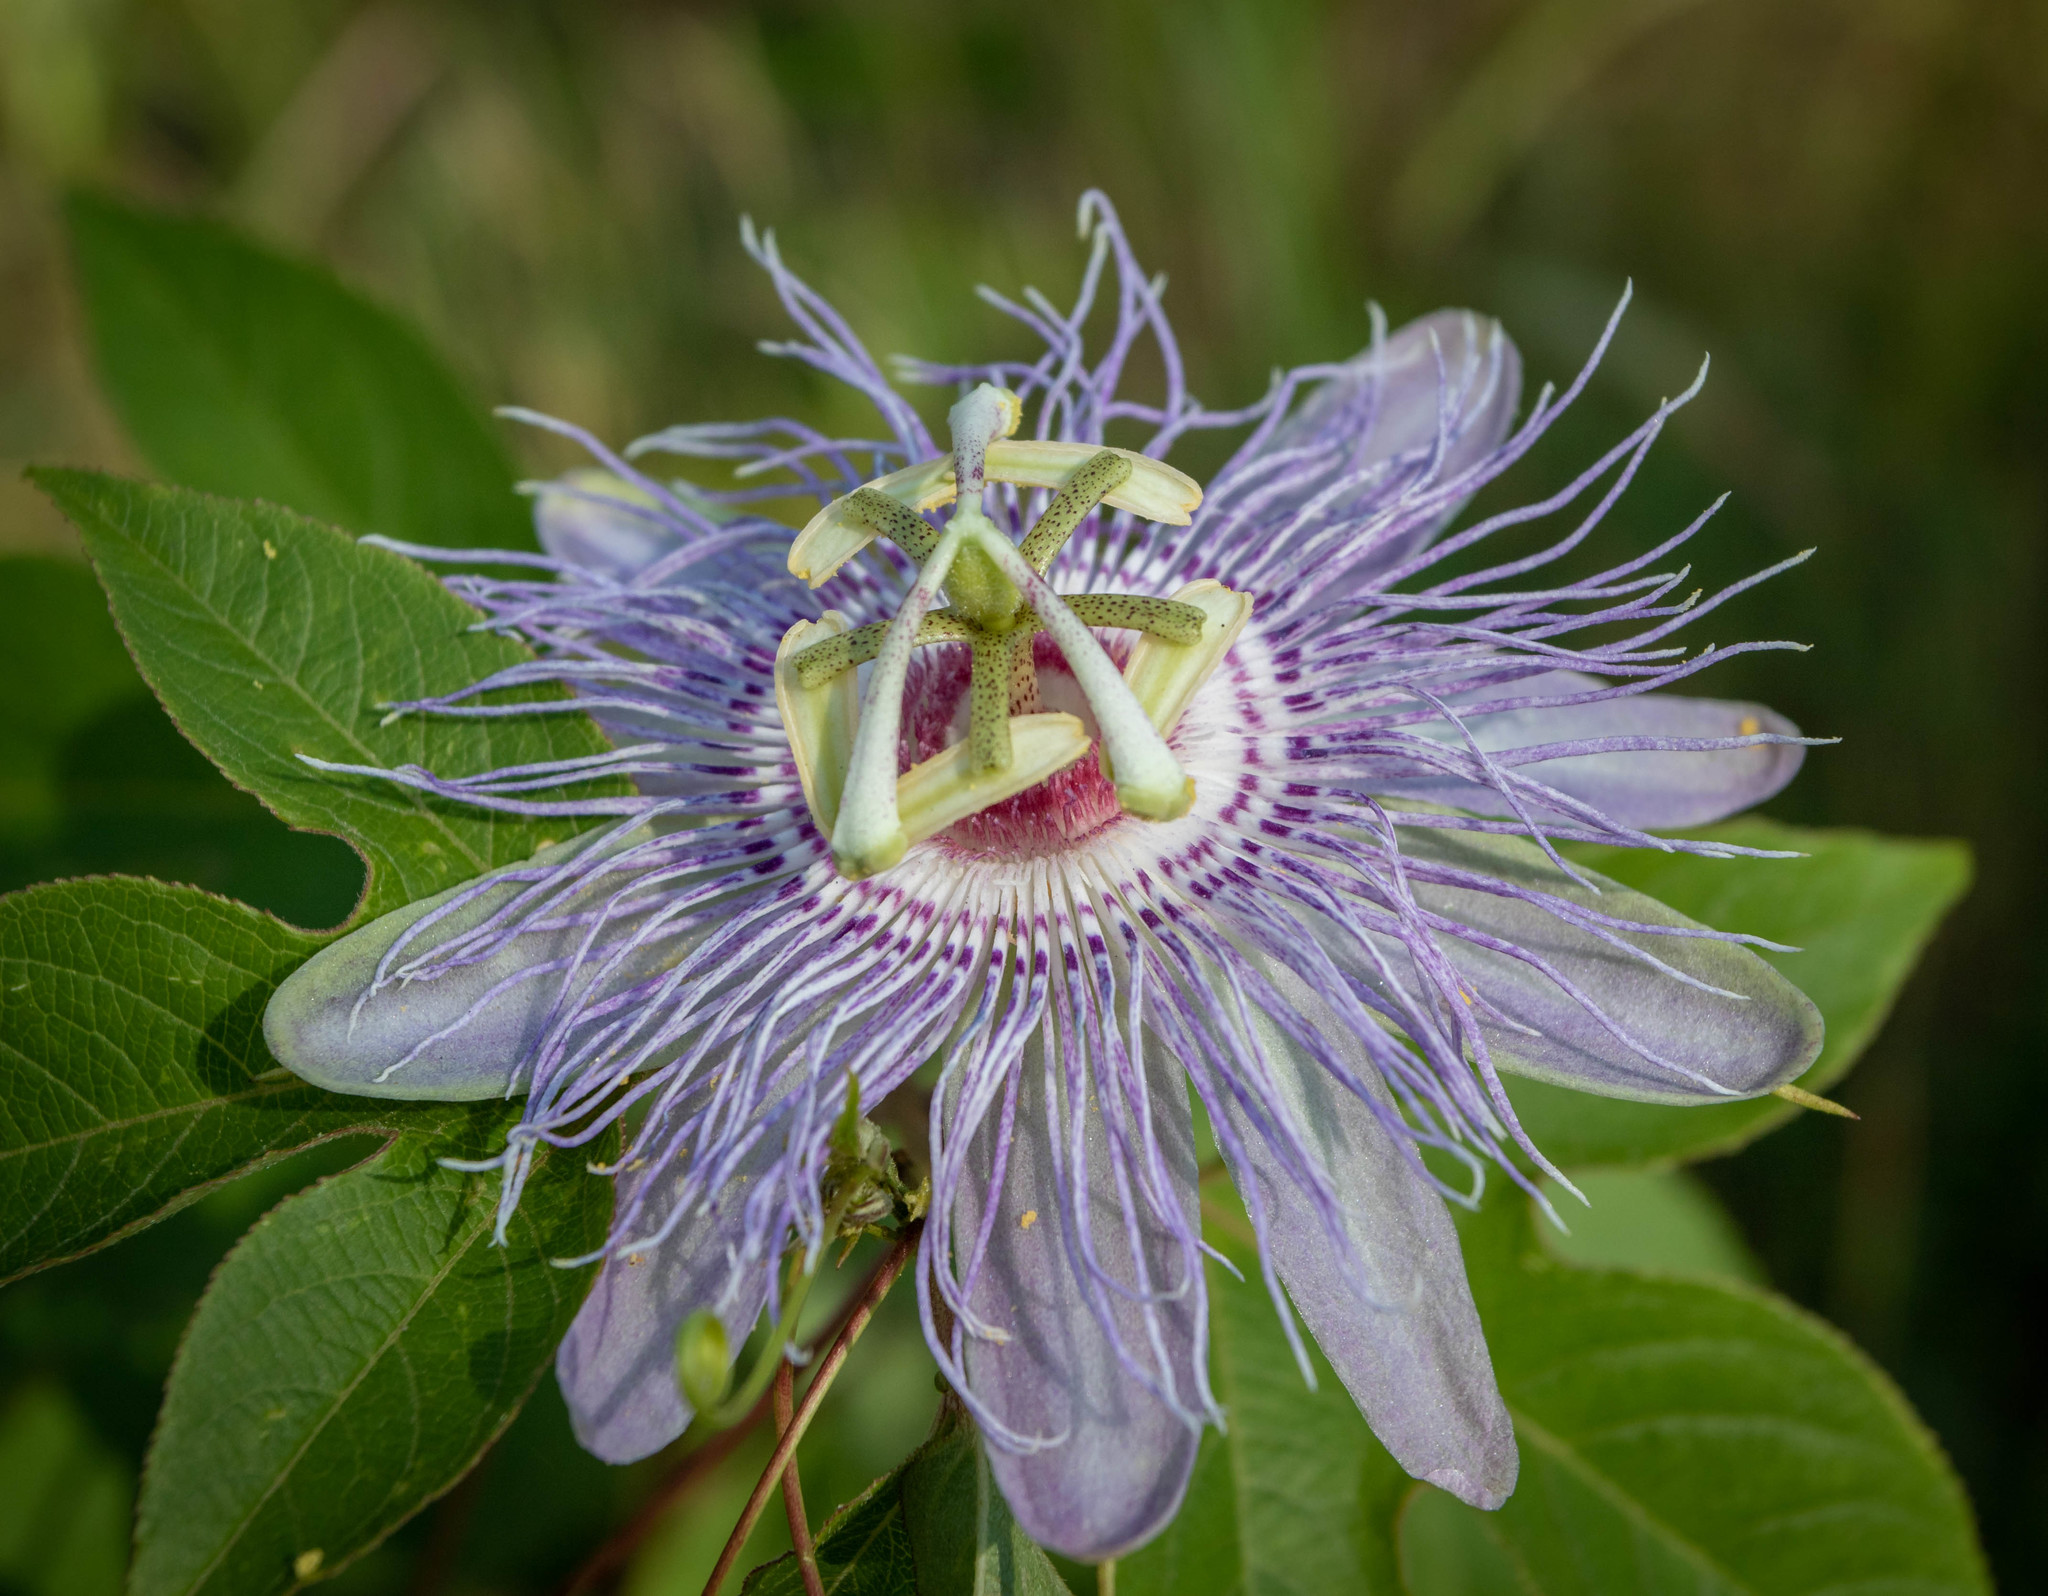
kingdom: Plantae
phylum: Tracheophyta
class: Magnoliopsida
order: Malpighiales
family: Passifloraceae
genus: Passiflora
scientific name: Passiflora incarnata
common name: Apricot-vine
